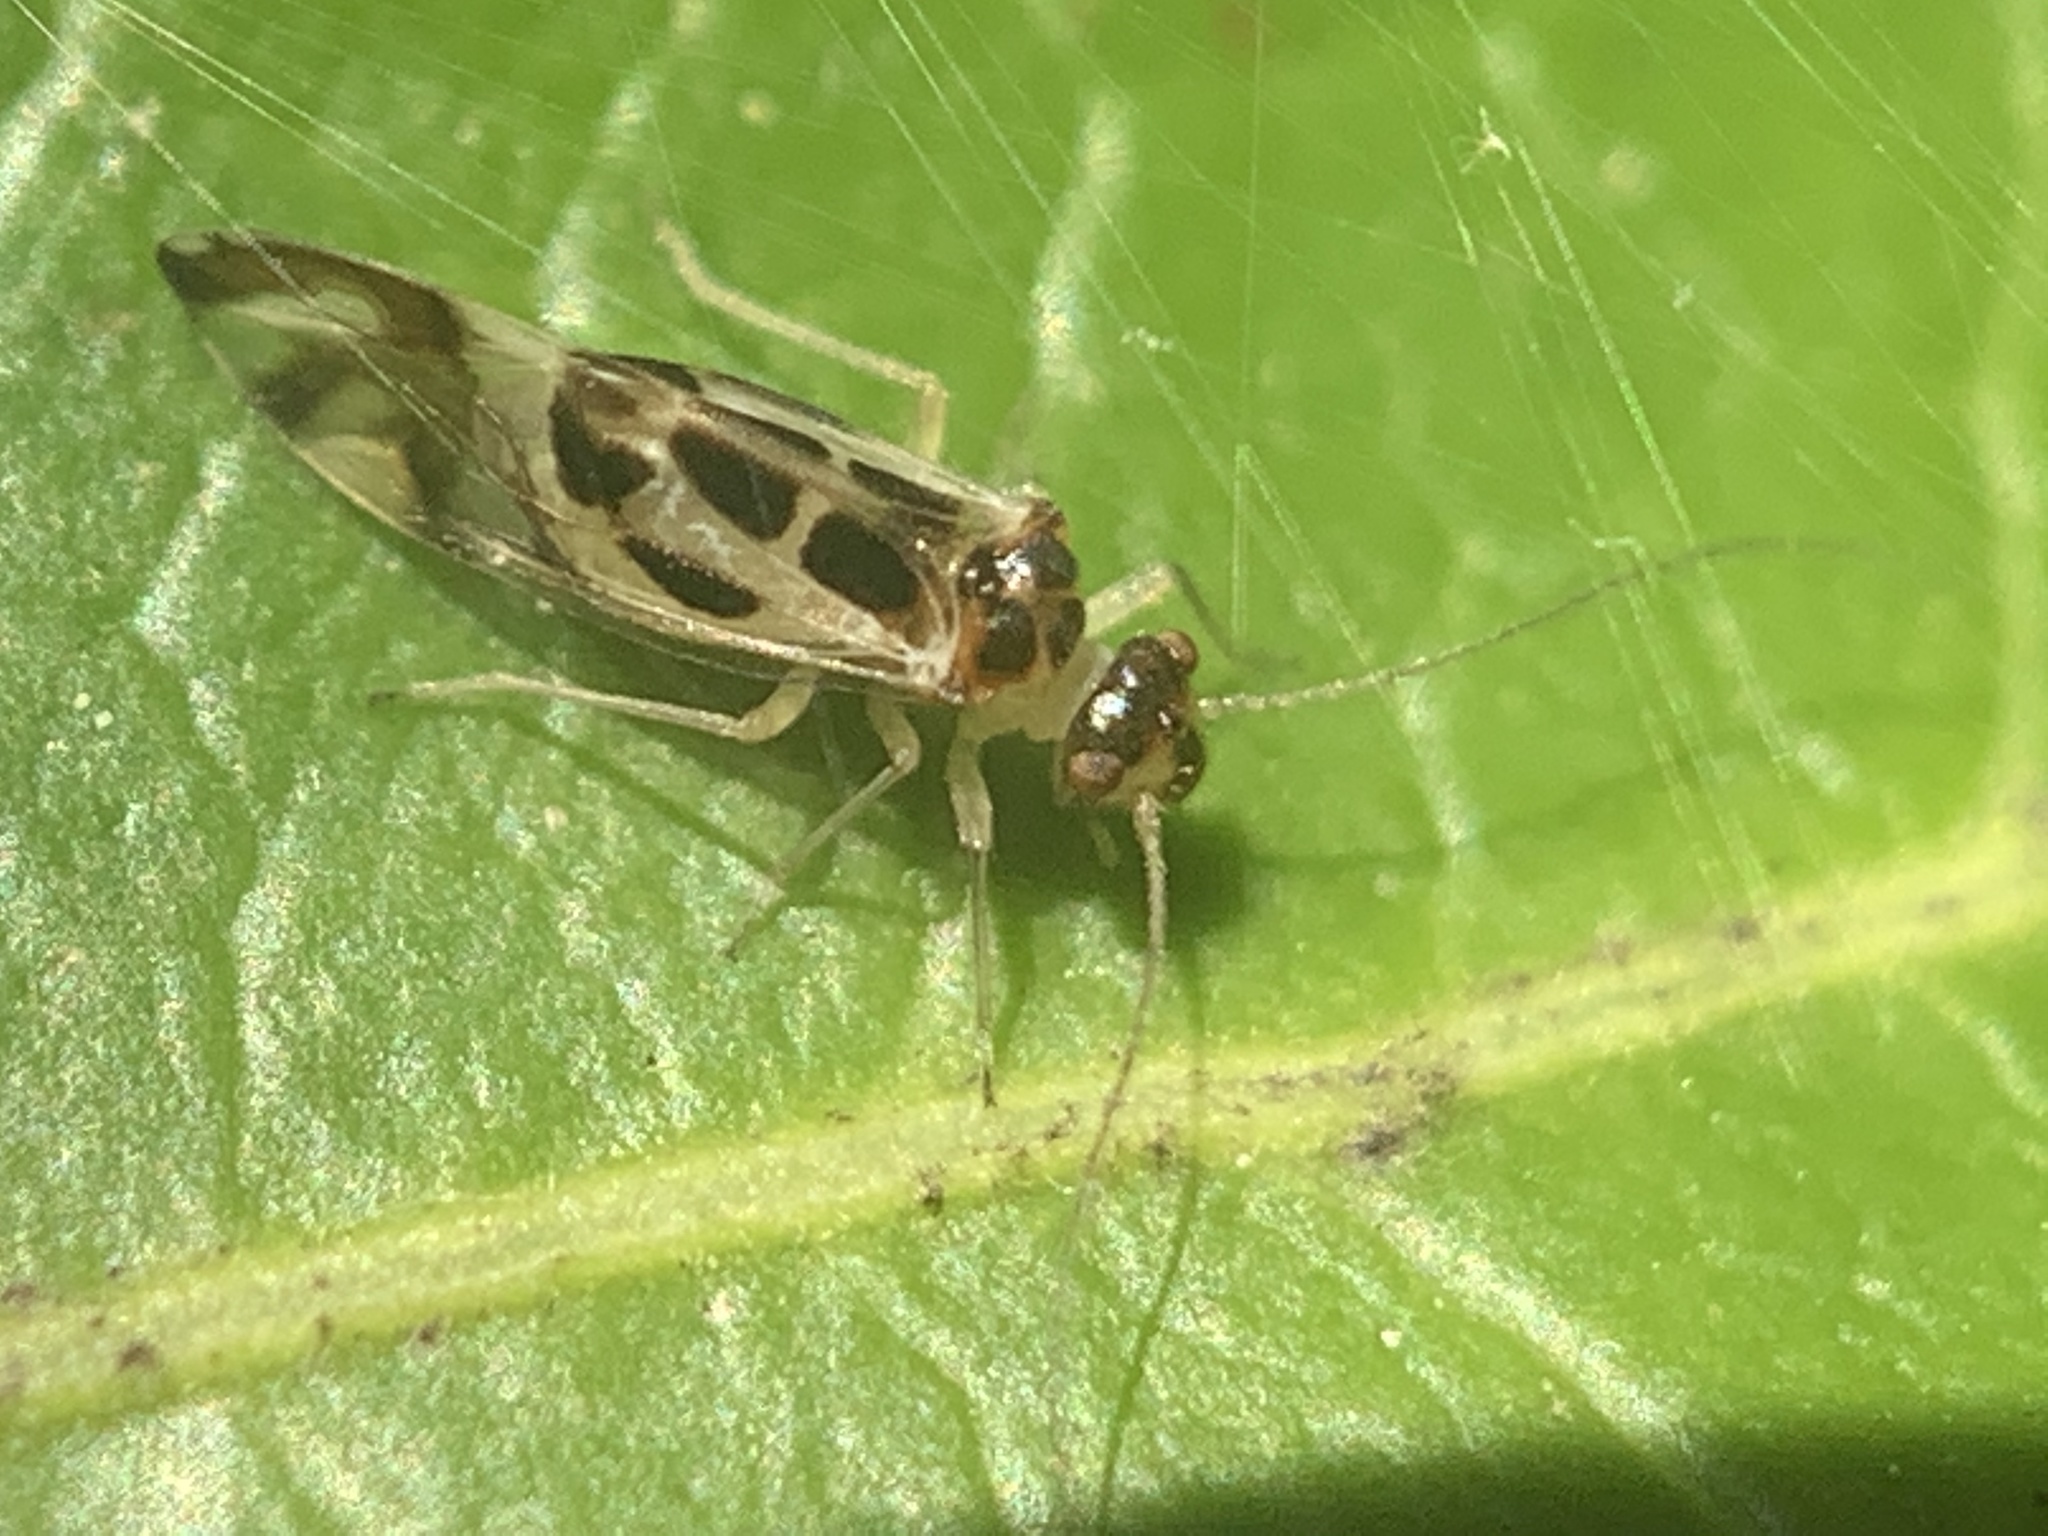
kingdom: Animalia
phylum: Arthropoda
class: Insecta
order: Psocodea
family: Stenopsocidae
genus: Graphopsocus
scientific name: Graphopsocus cruciatus
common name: Lizard bark louse
